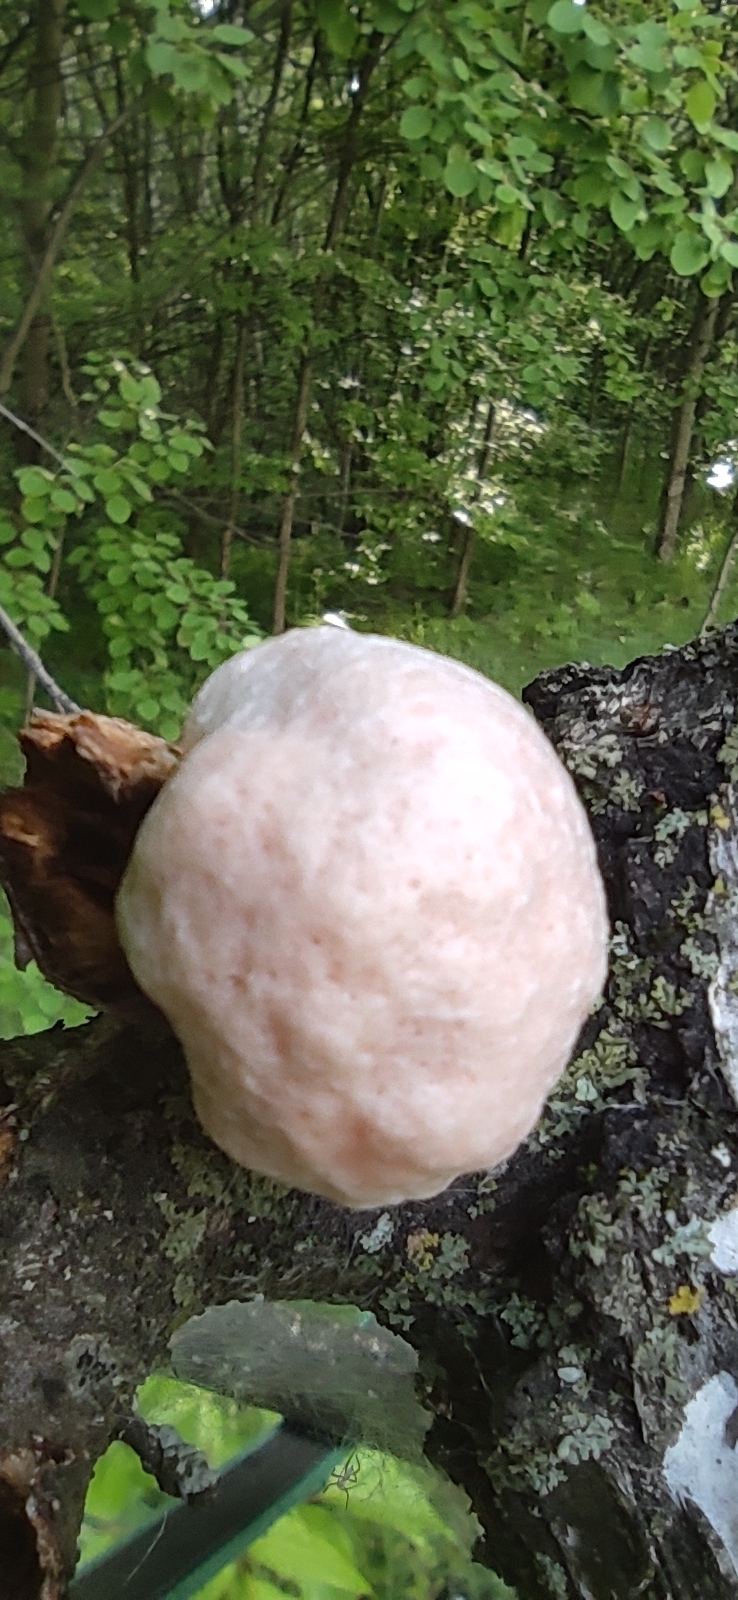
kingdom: Protozoa
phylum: Mycetozoa
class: Myxomycetes
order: Cribrariales
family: Tubiferaceae
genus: Reticularia
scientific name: Reticularia lycoperdon
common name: False puffball
